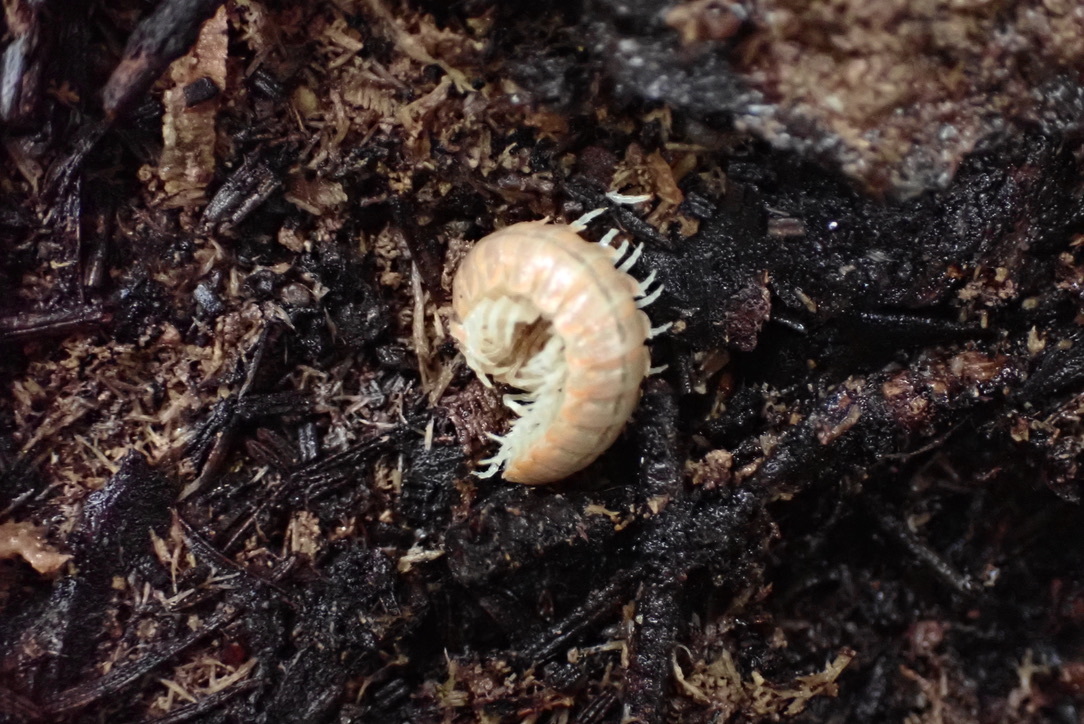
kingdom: Animalia
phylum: Arthropoda
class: Diplopoda
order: Polydesmida
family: Xystodesmidae
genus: Xystocheir
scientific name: Xystocheir dissecta
